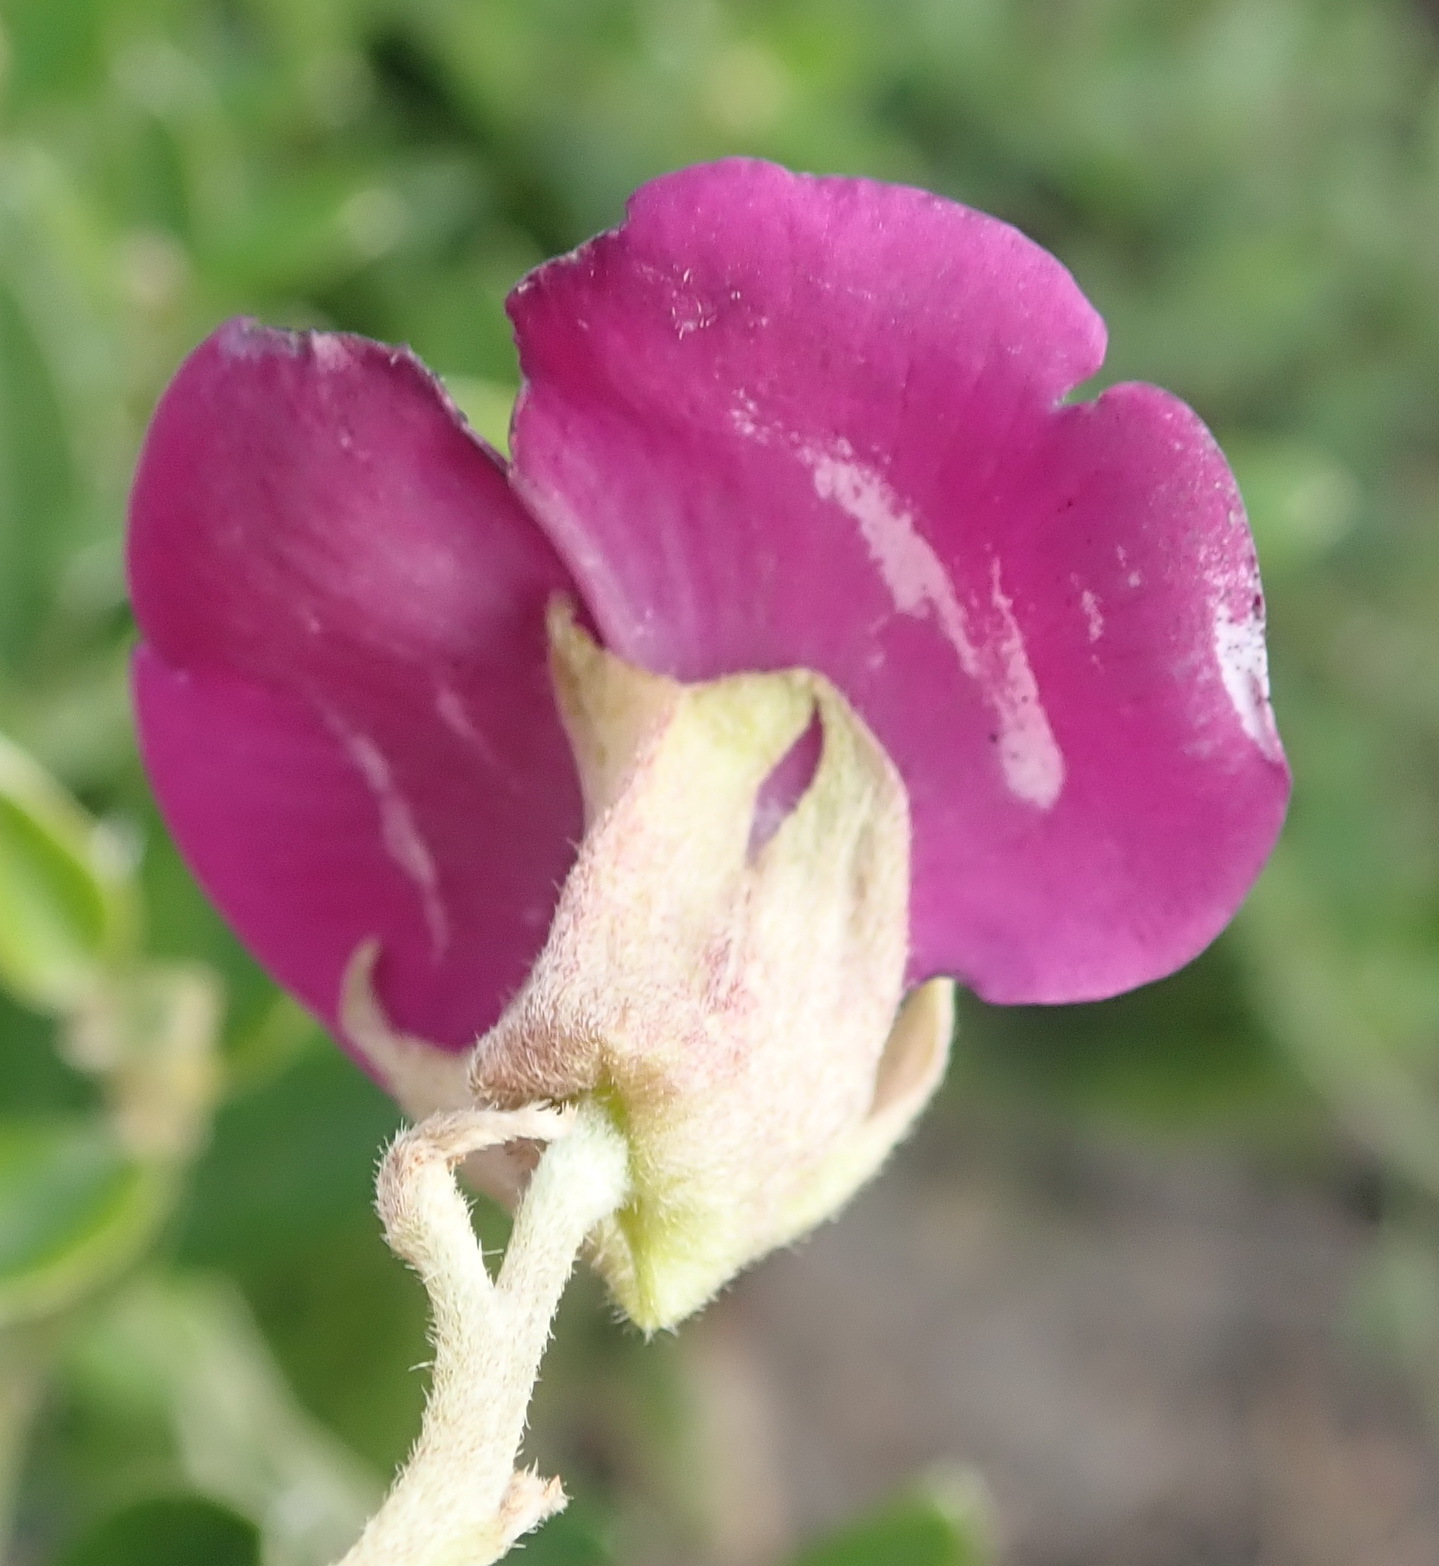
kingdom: Plantae
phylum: Tracheophyta
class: Magnoliopsida
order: Fabales
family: Fabaceae
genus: Podalyria
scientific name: Podalyria buxifolia
